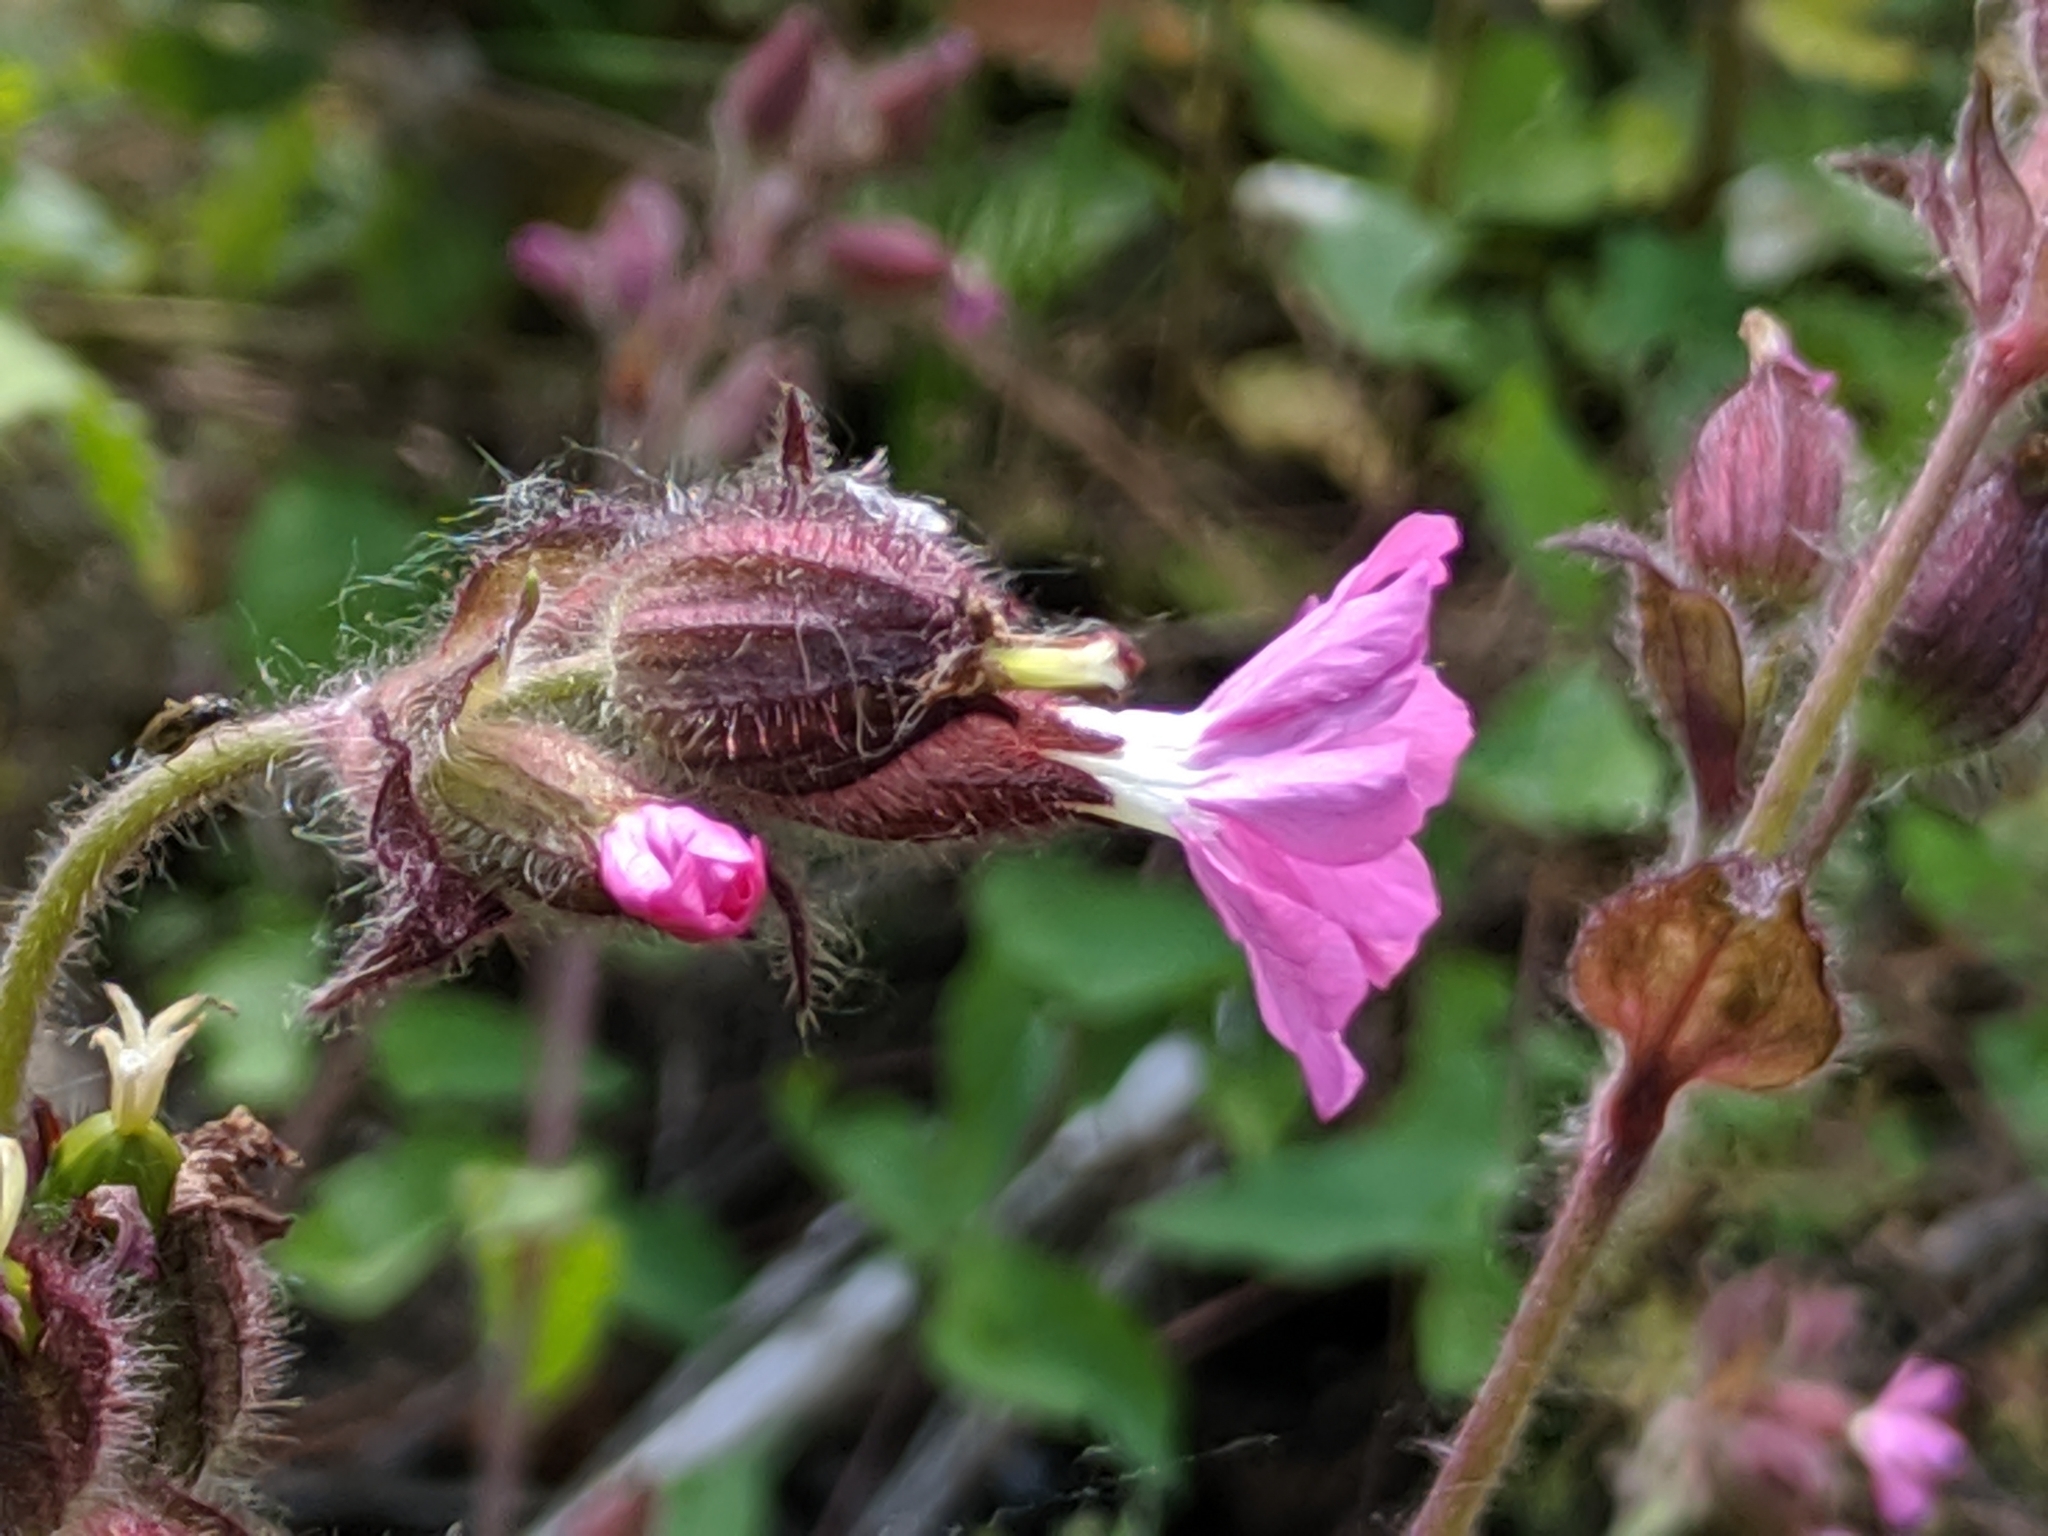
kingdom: Plantae
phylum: Tracheophyta
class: Magnoliopsida
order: Caryophyllales
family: Caryophyllaceae
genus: Silene
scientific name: Silene dioica
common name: Red campion
